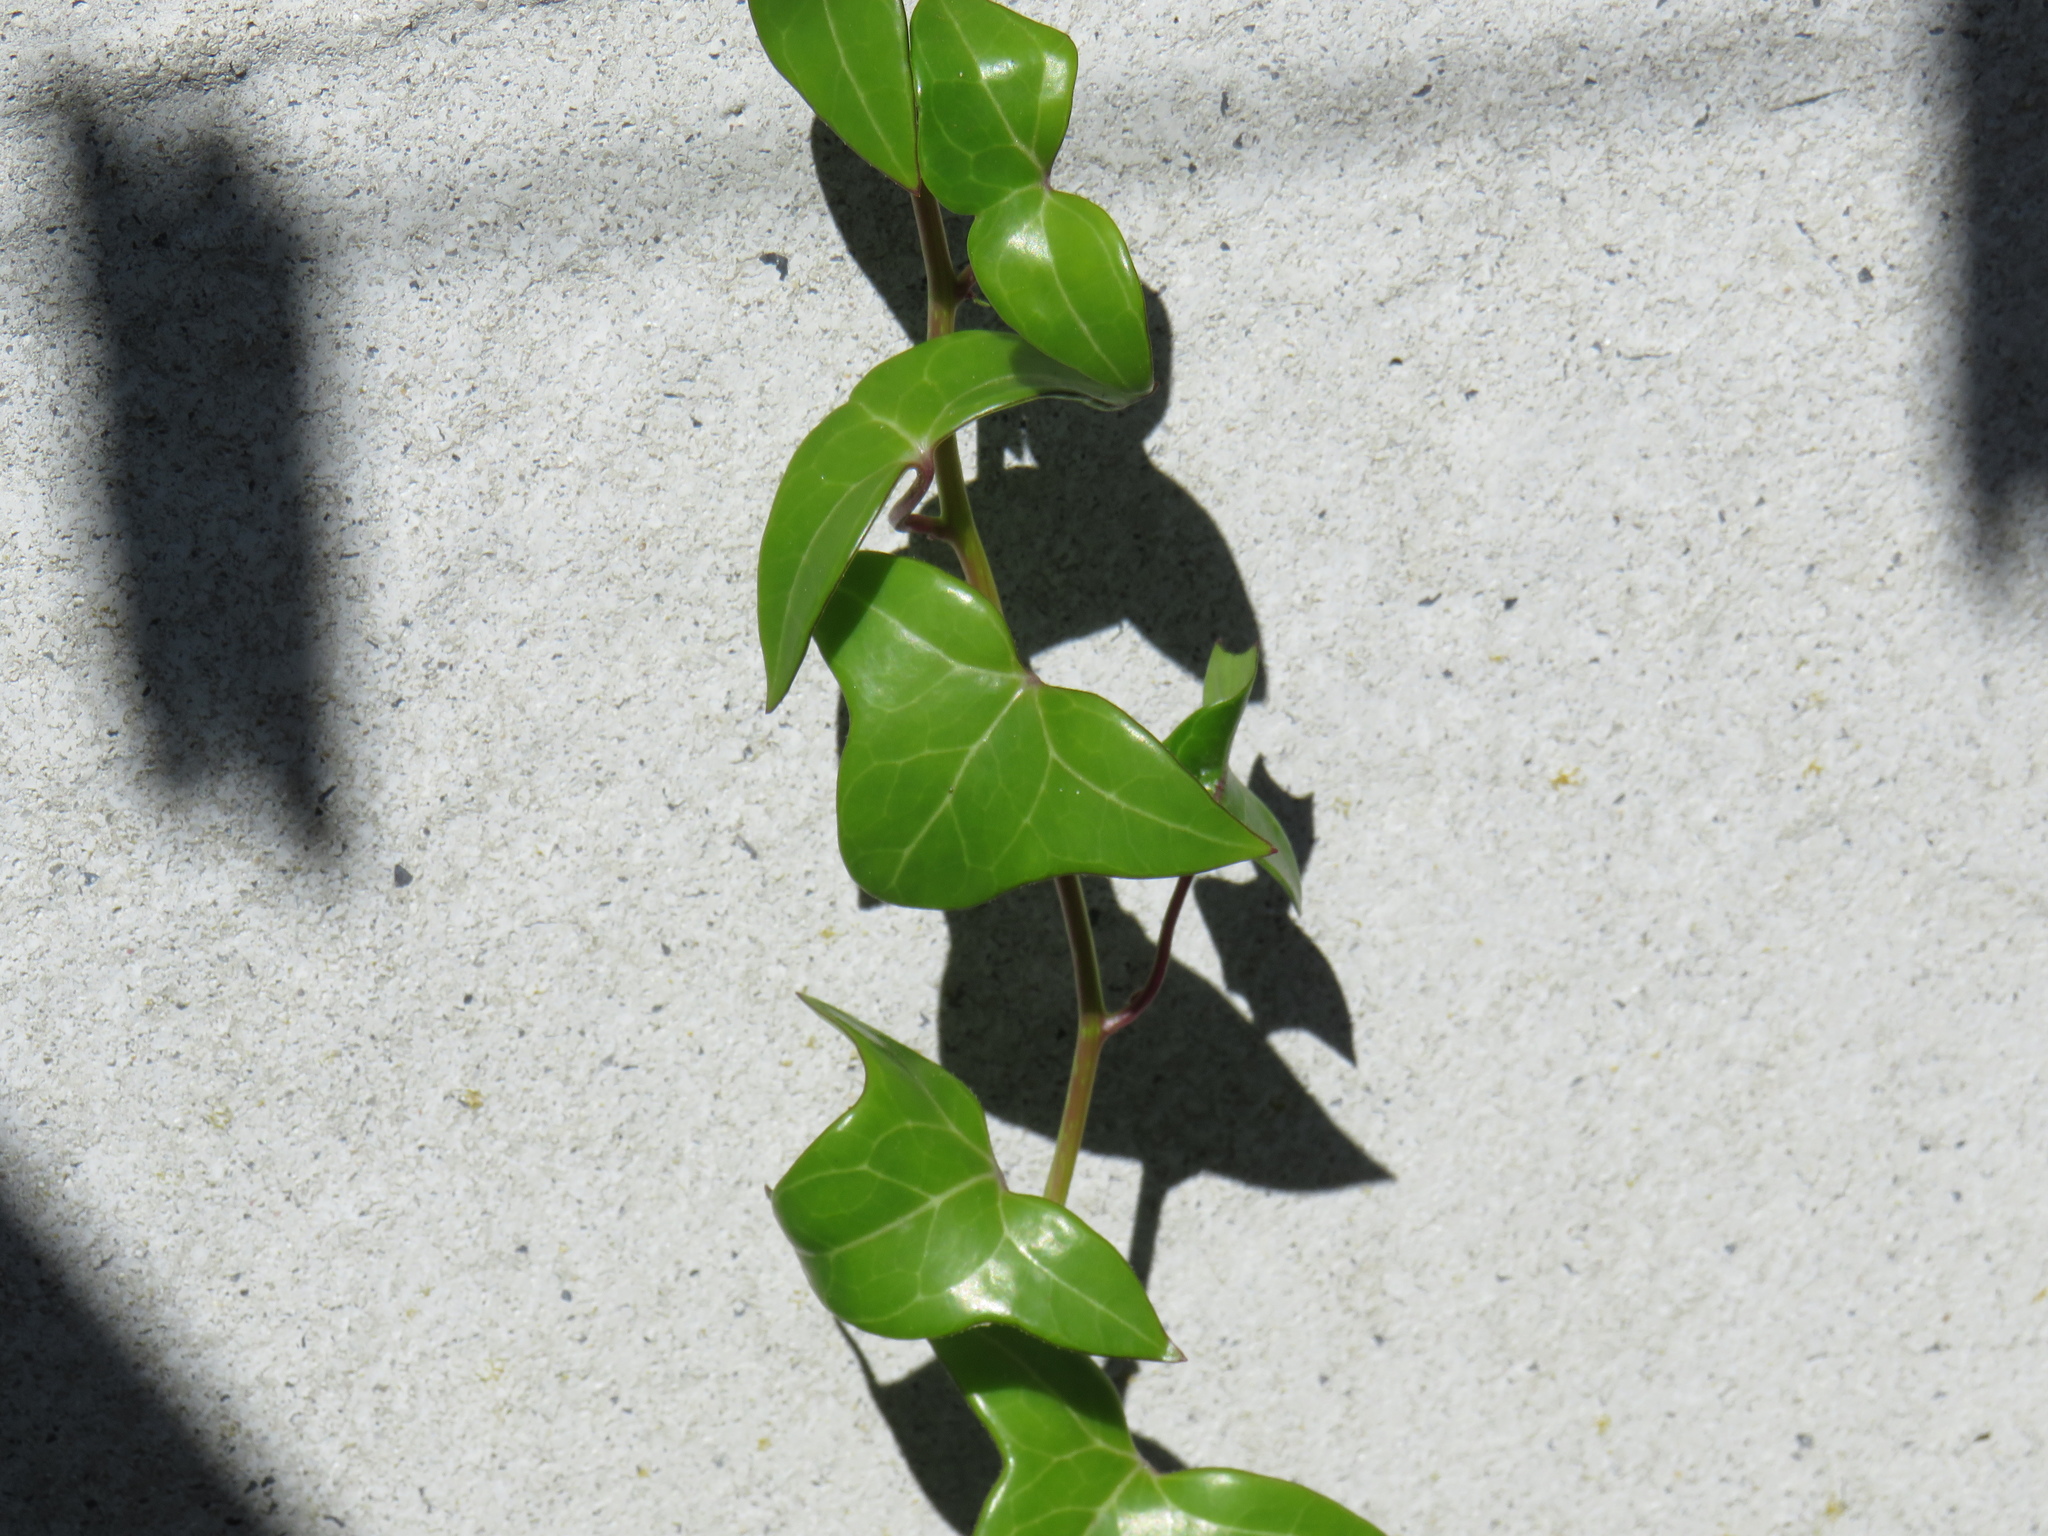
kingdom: Plantae
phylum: Tracheophyta
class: Magnoliopsida
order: Asterales
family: Asteraceae
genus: Senecio
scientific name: Senecio macroglossus
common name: Natal-ivy
